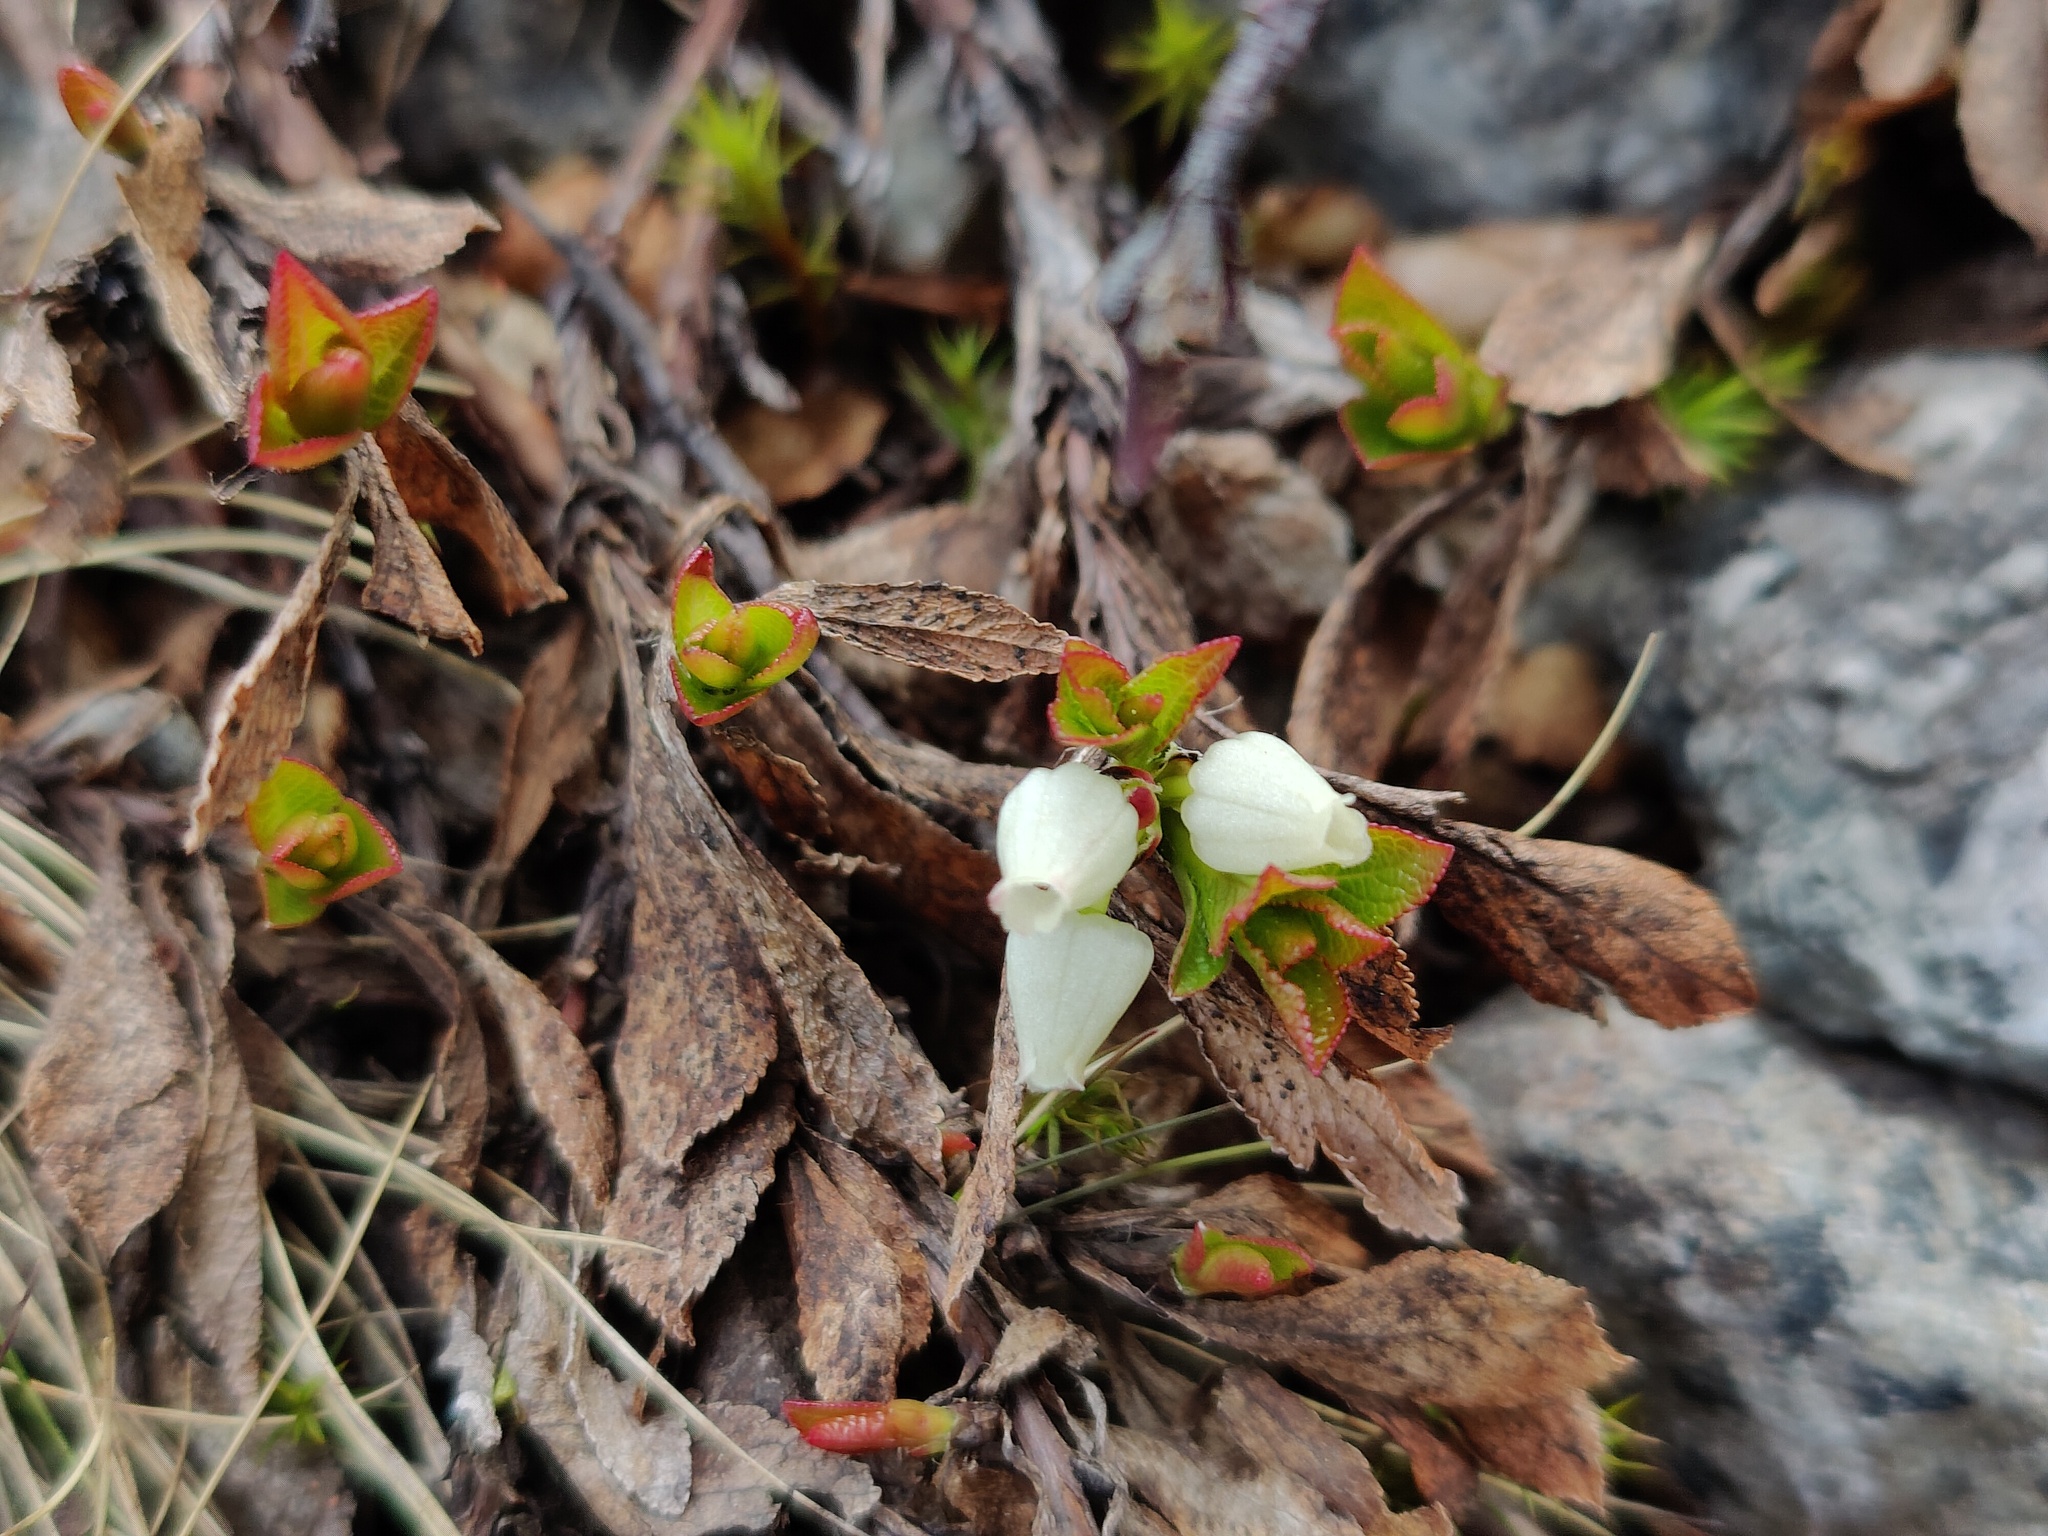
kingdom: Plantae
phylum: Tracheophyta
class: Magnoliopsida
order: Ericales
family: Ericaceae
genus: Arctostaphylos
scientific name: Arctostaphylos alpinus
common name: Alpine bearberry
